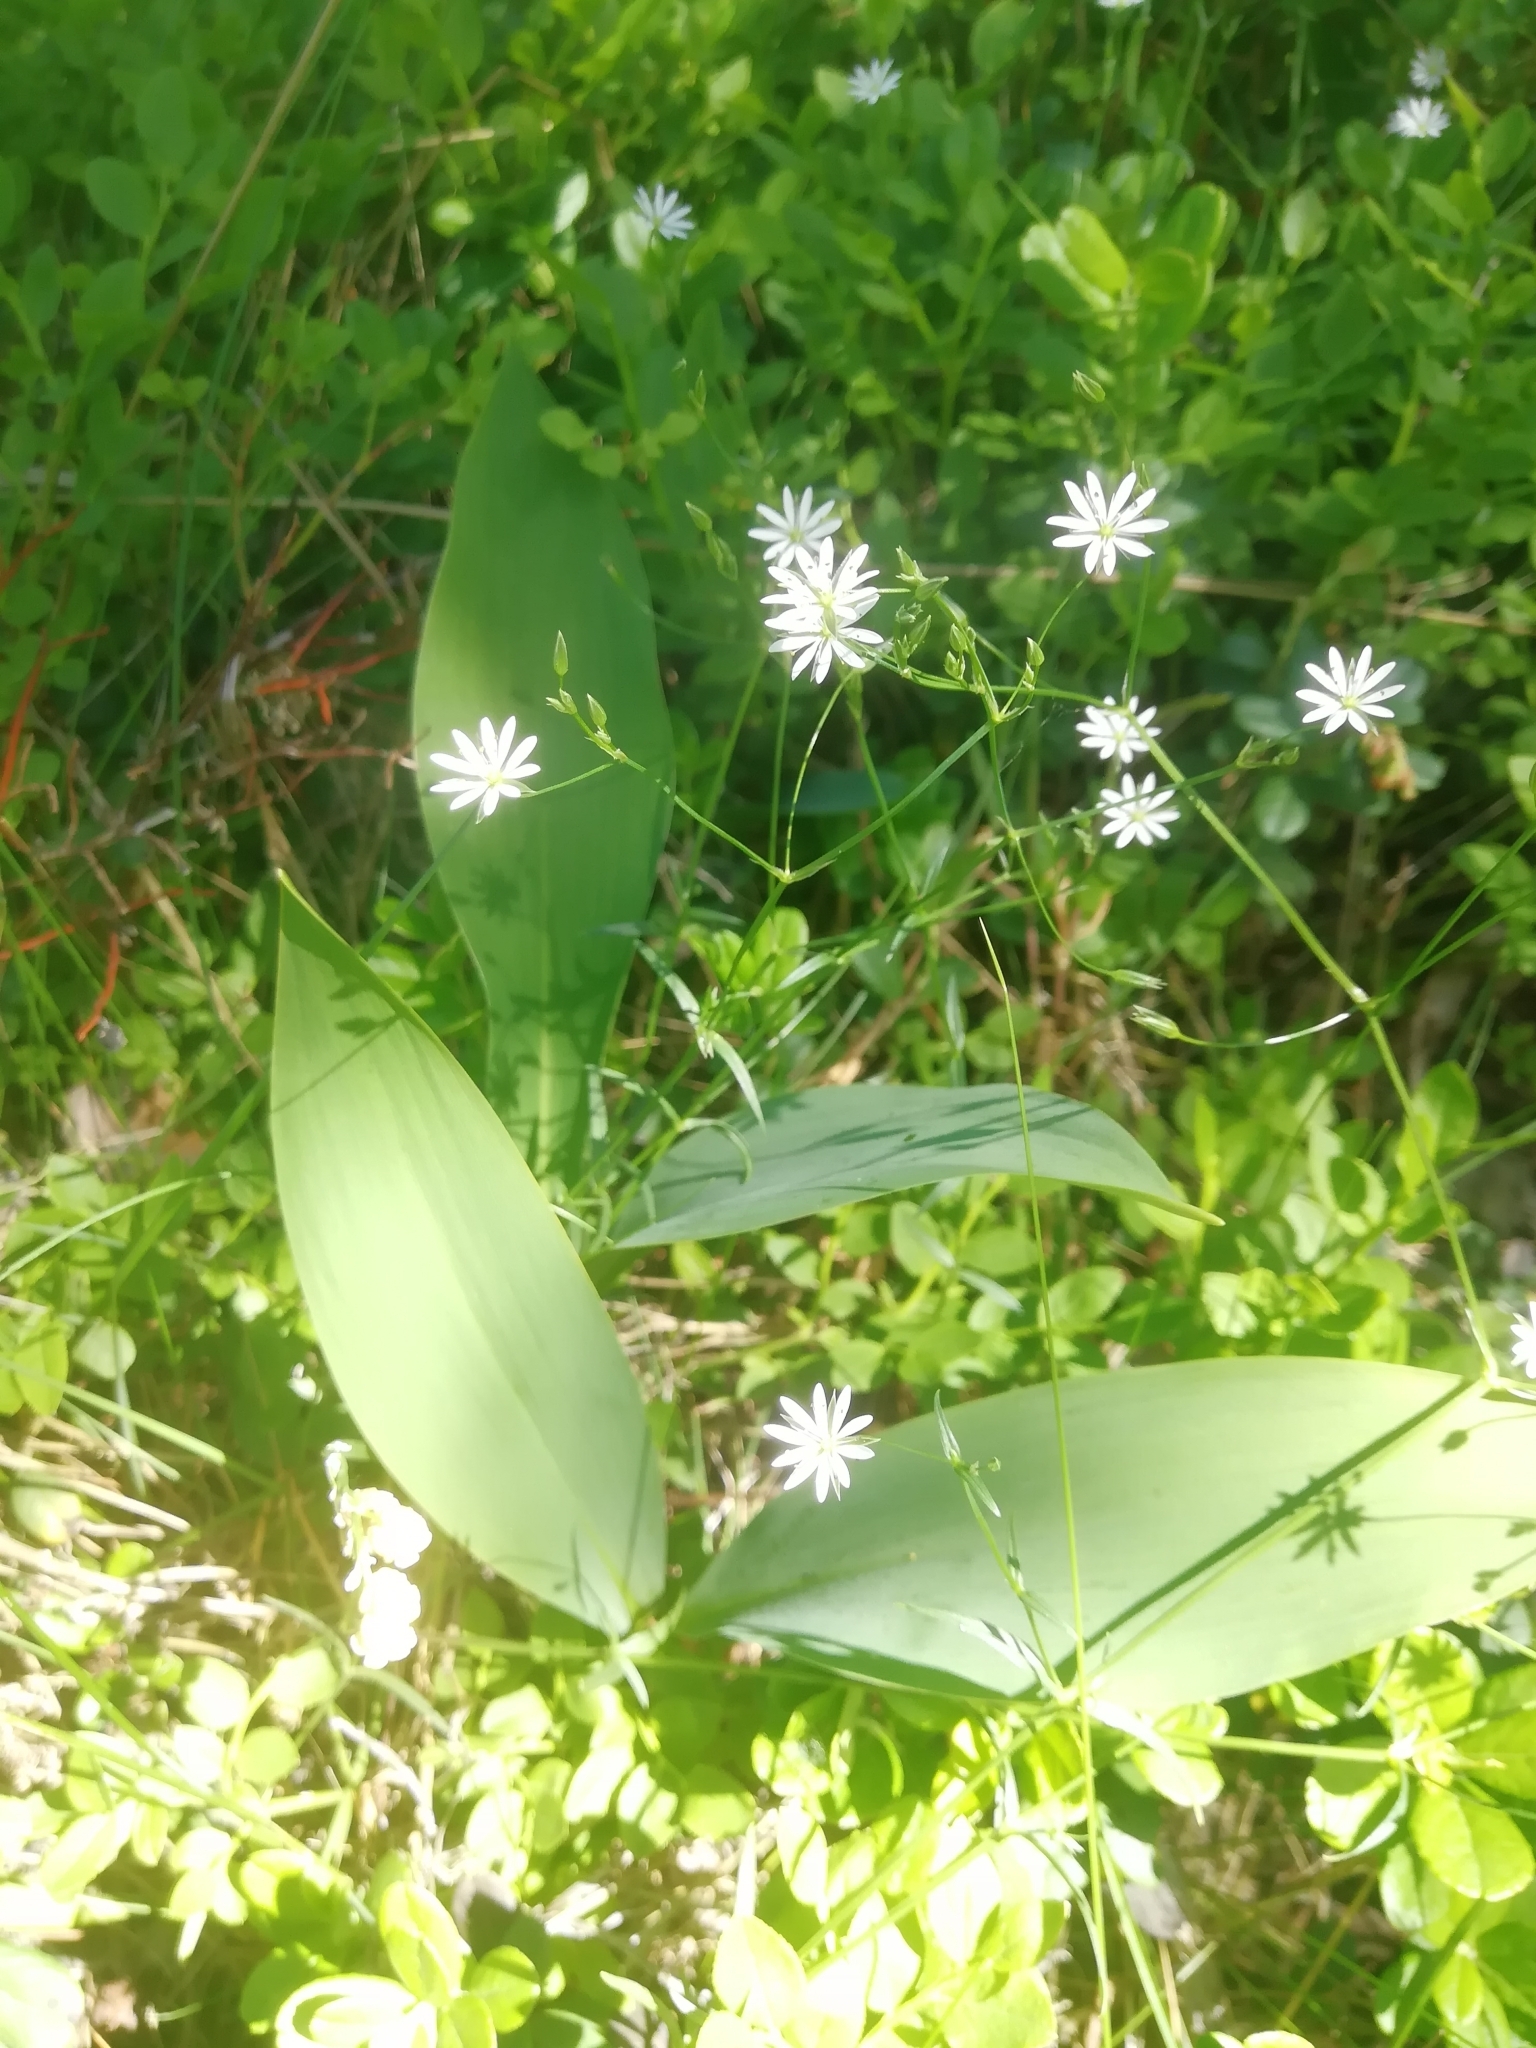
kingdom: Plantae
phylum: Tracheophyta
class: Magnoliopsida
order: Caryophyllales
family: Caryophyllaceae
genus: Stellaria
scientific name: Stellaria graminea
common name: Grass-like starwort
